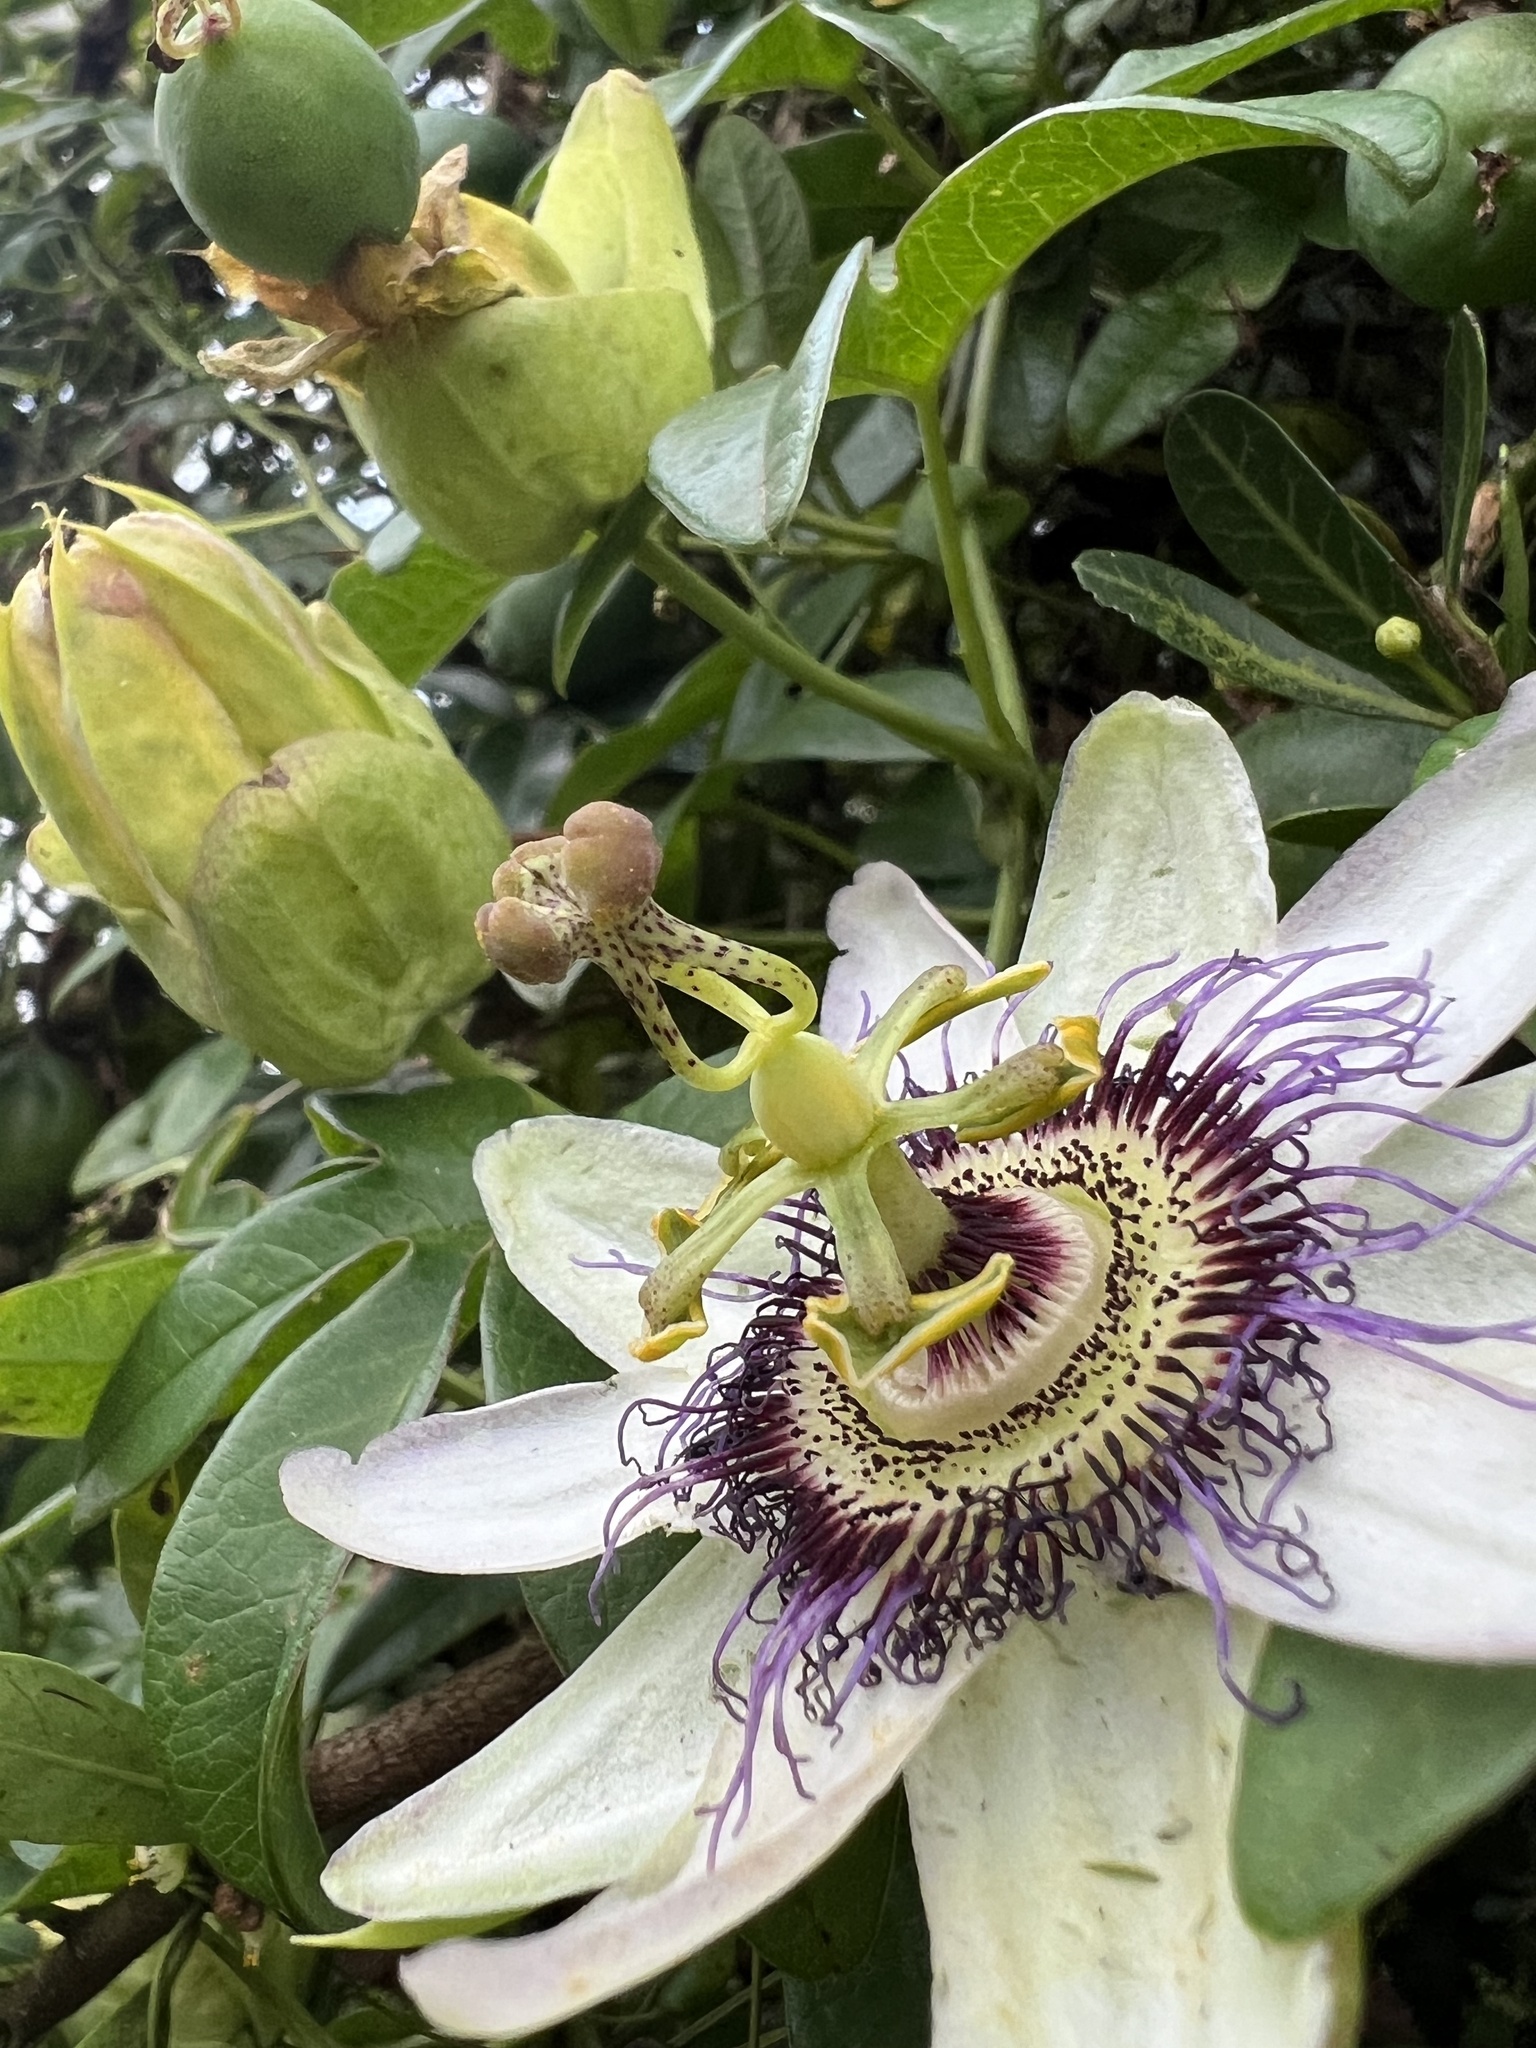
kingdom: Plantae
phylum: Tracheophyta
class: Magnoliopsida
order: Malpighiales
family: Passifloraceae
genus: Passiflora
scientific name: Passiflora caerulea
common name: Blue passionflower
